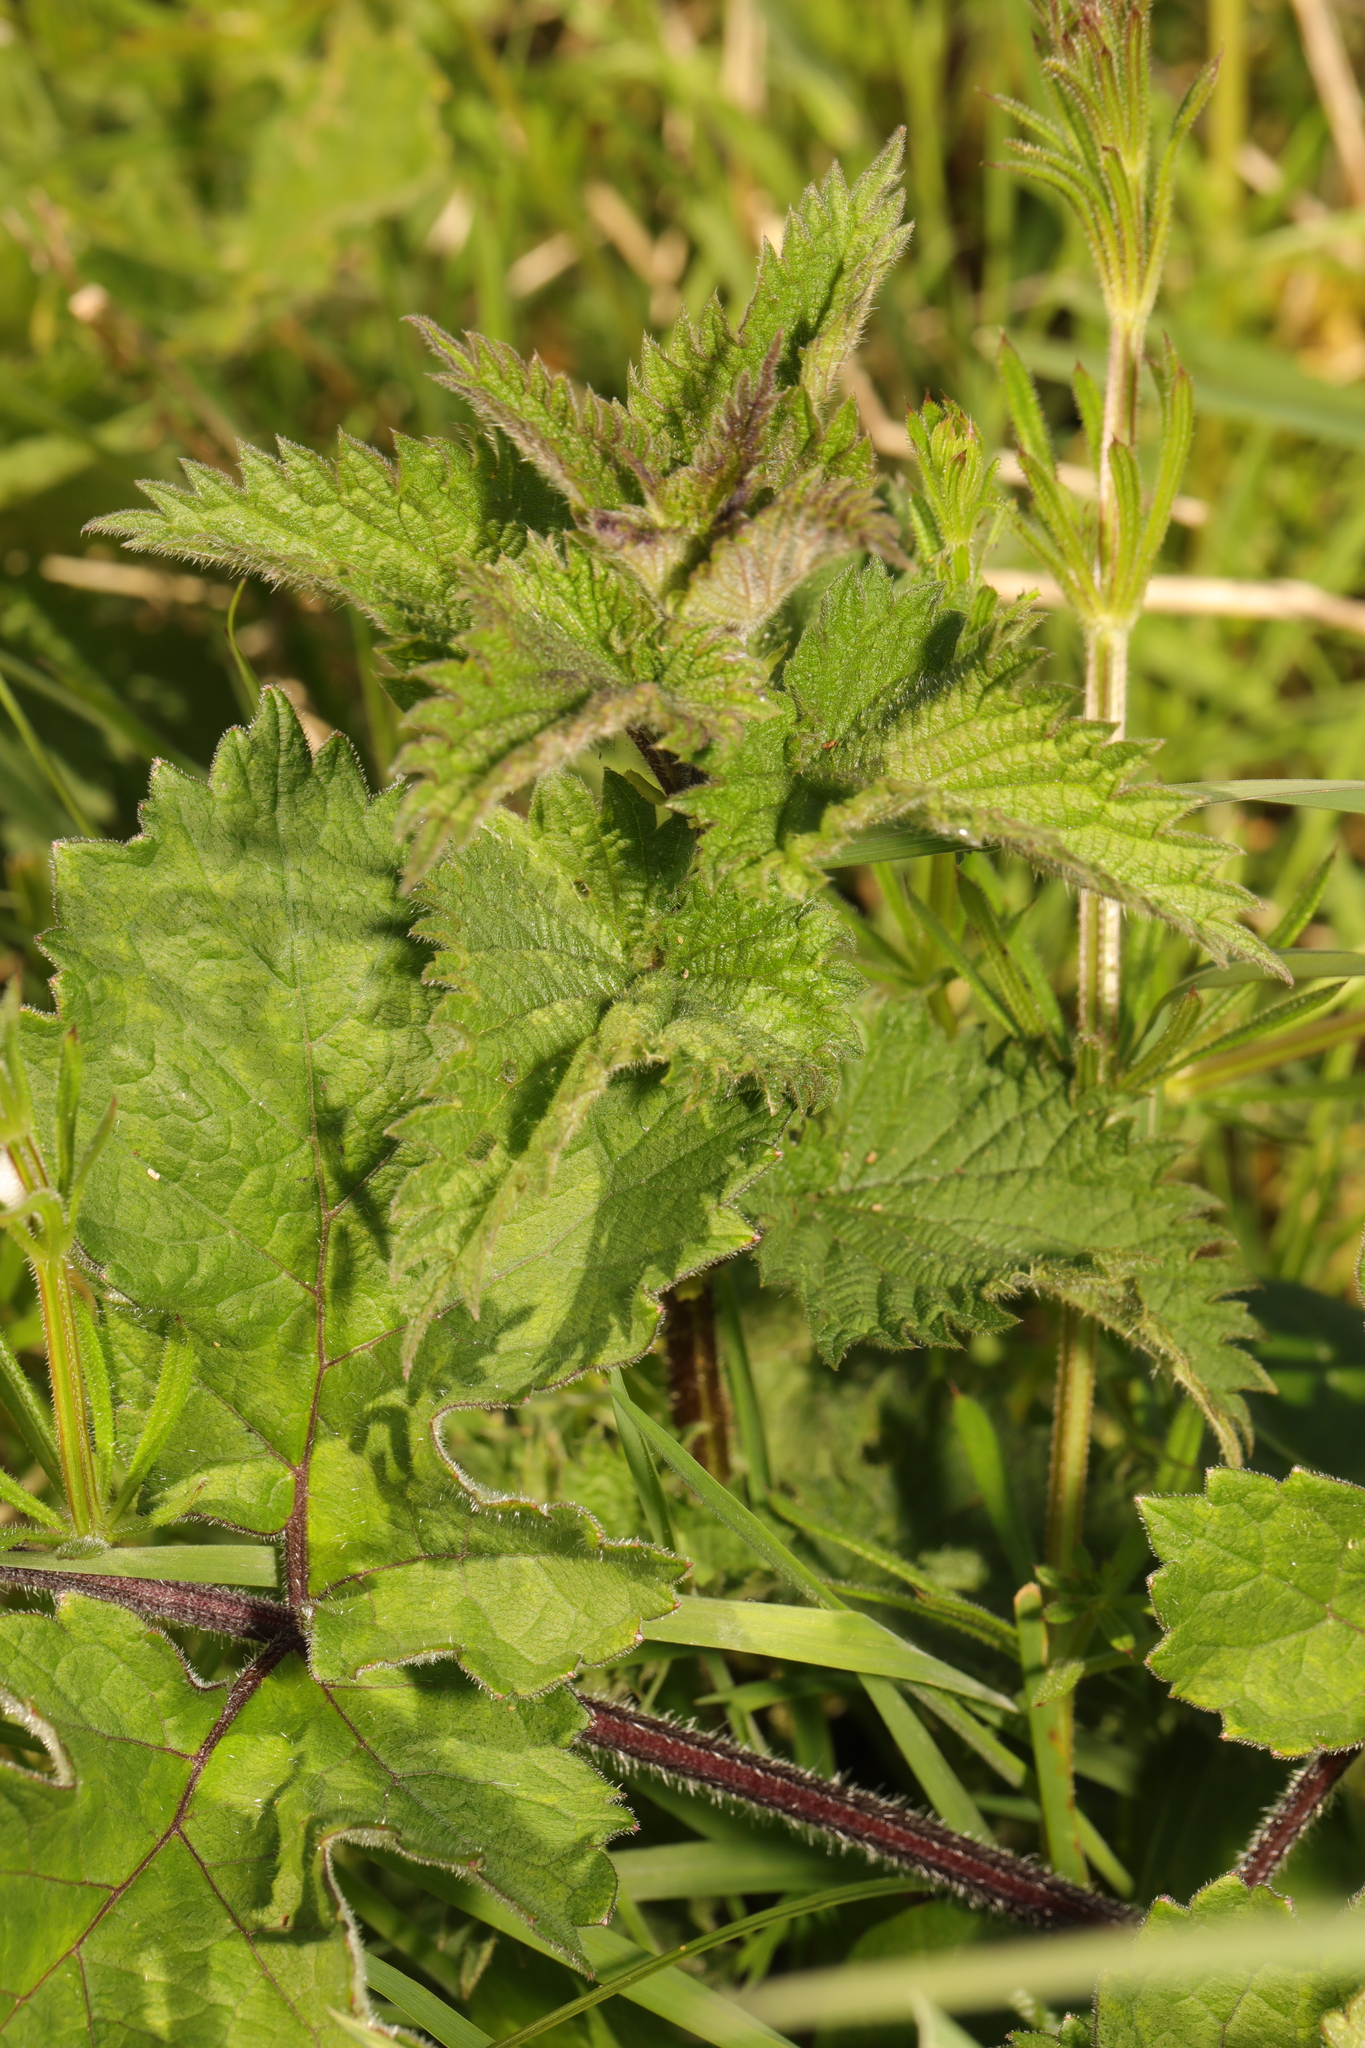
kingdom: Plantae
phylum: Tracheophyta
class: Magnoliopsida
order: Rosales
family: Urticaceae
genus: Urtica
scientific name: Urtica dioica
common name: Common nettle
